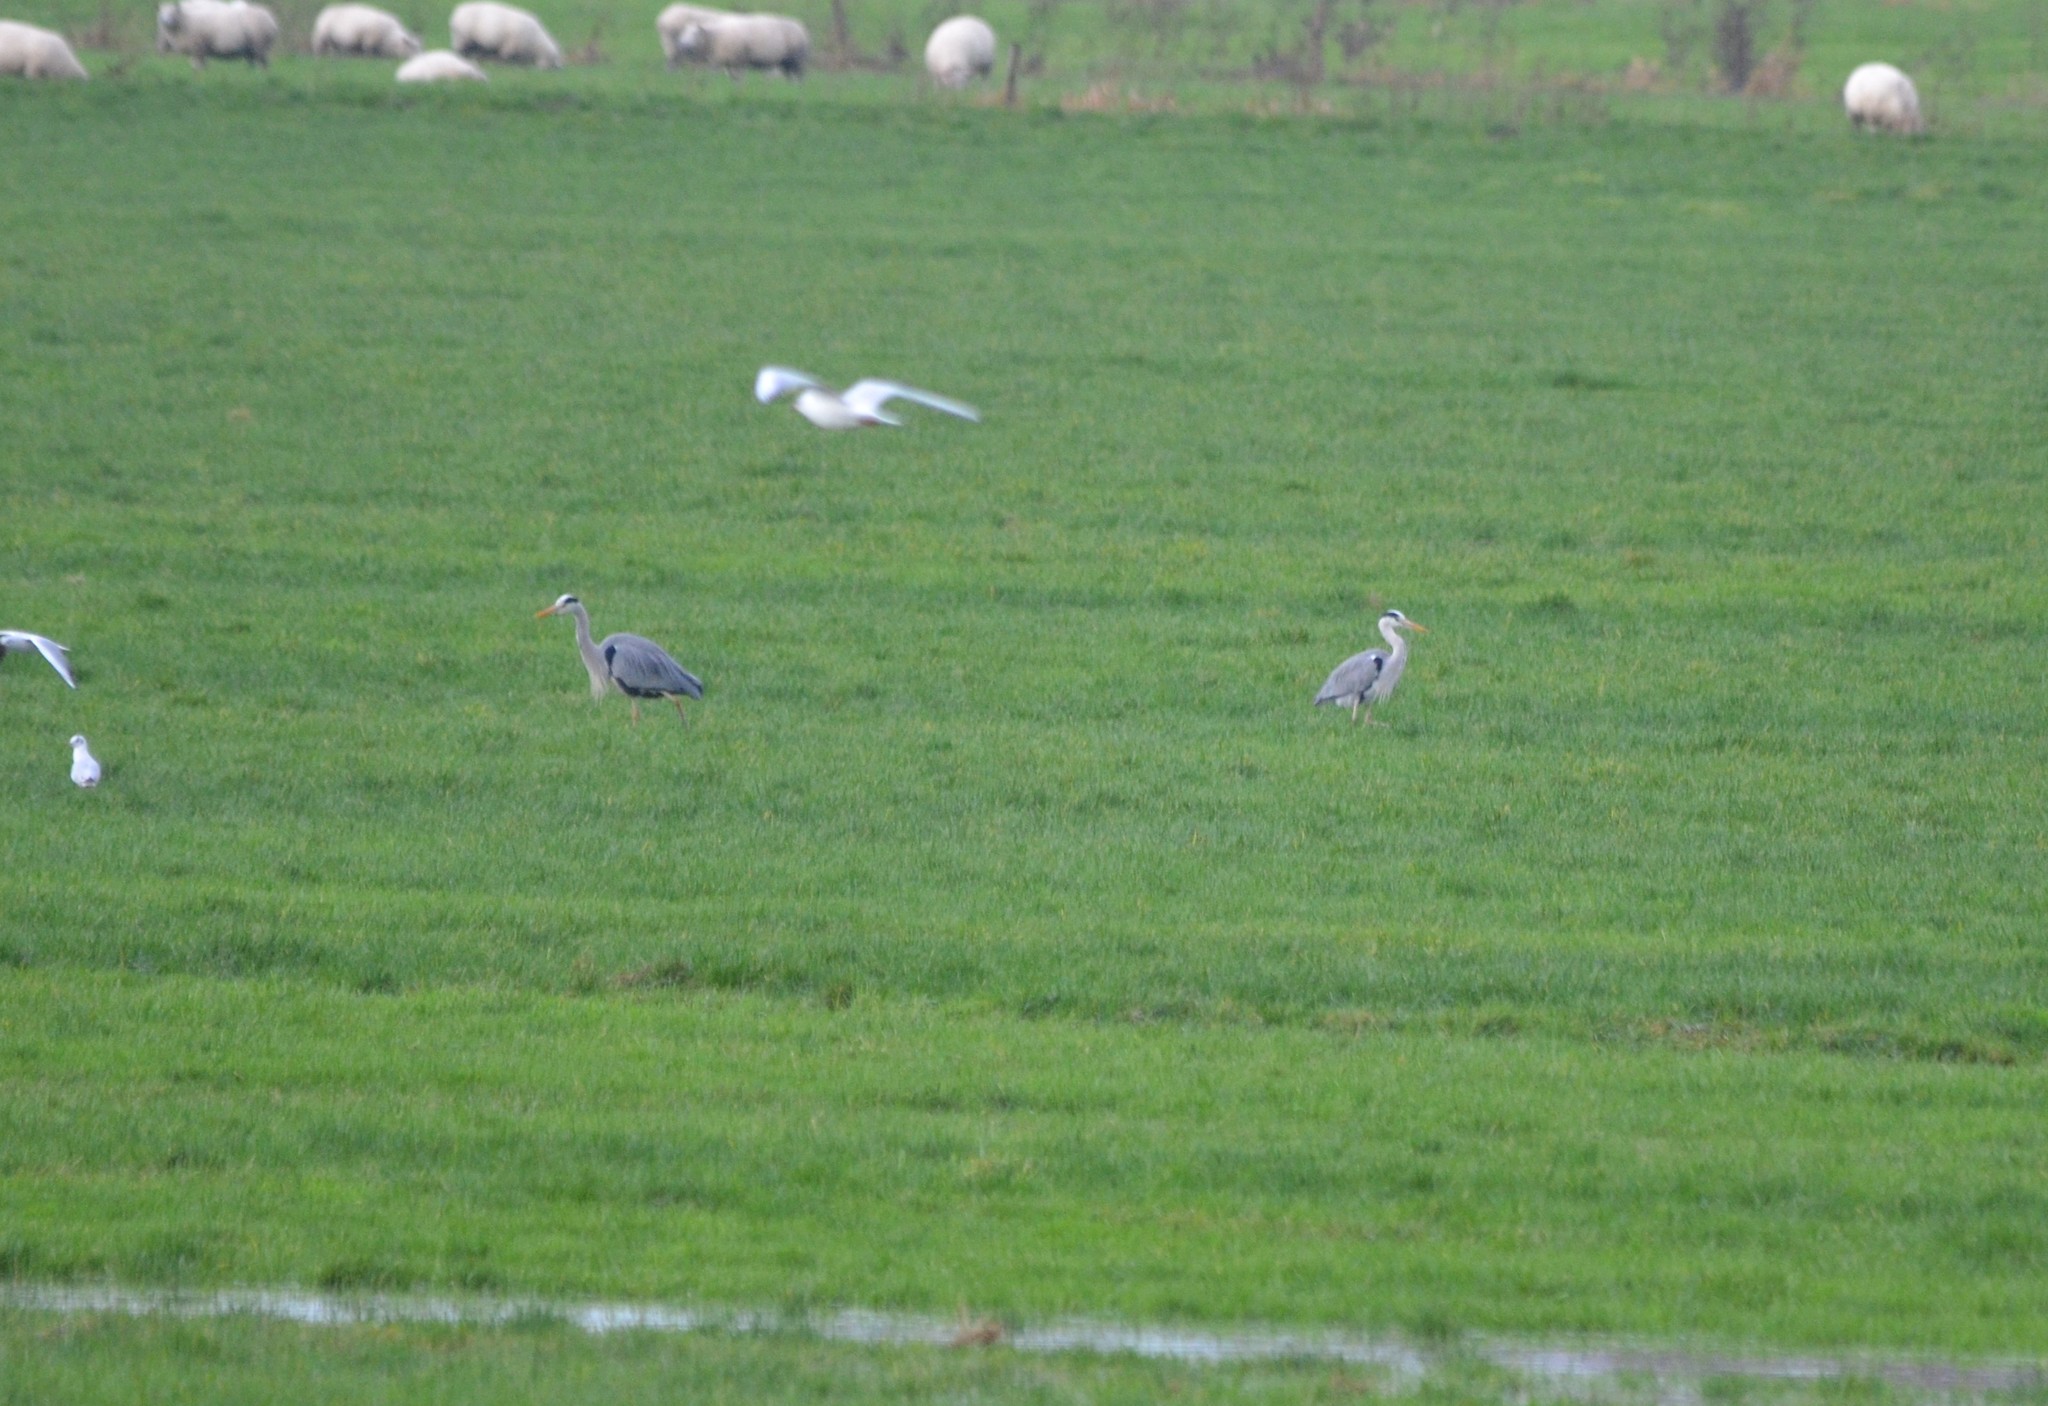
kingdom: Animalia
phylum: Chordata
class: Aves
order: Pelecaniformes
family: Ardeidae
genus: Ardea
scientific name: Ardea cinerea
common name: Grey heron
